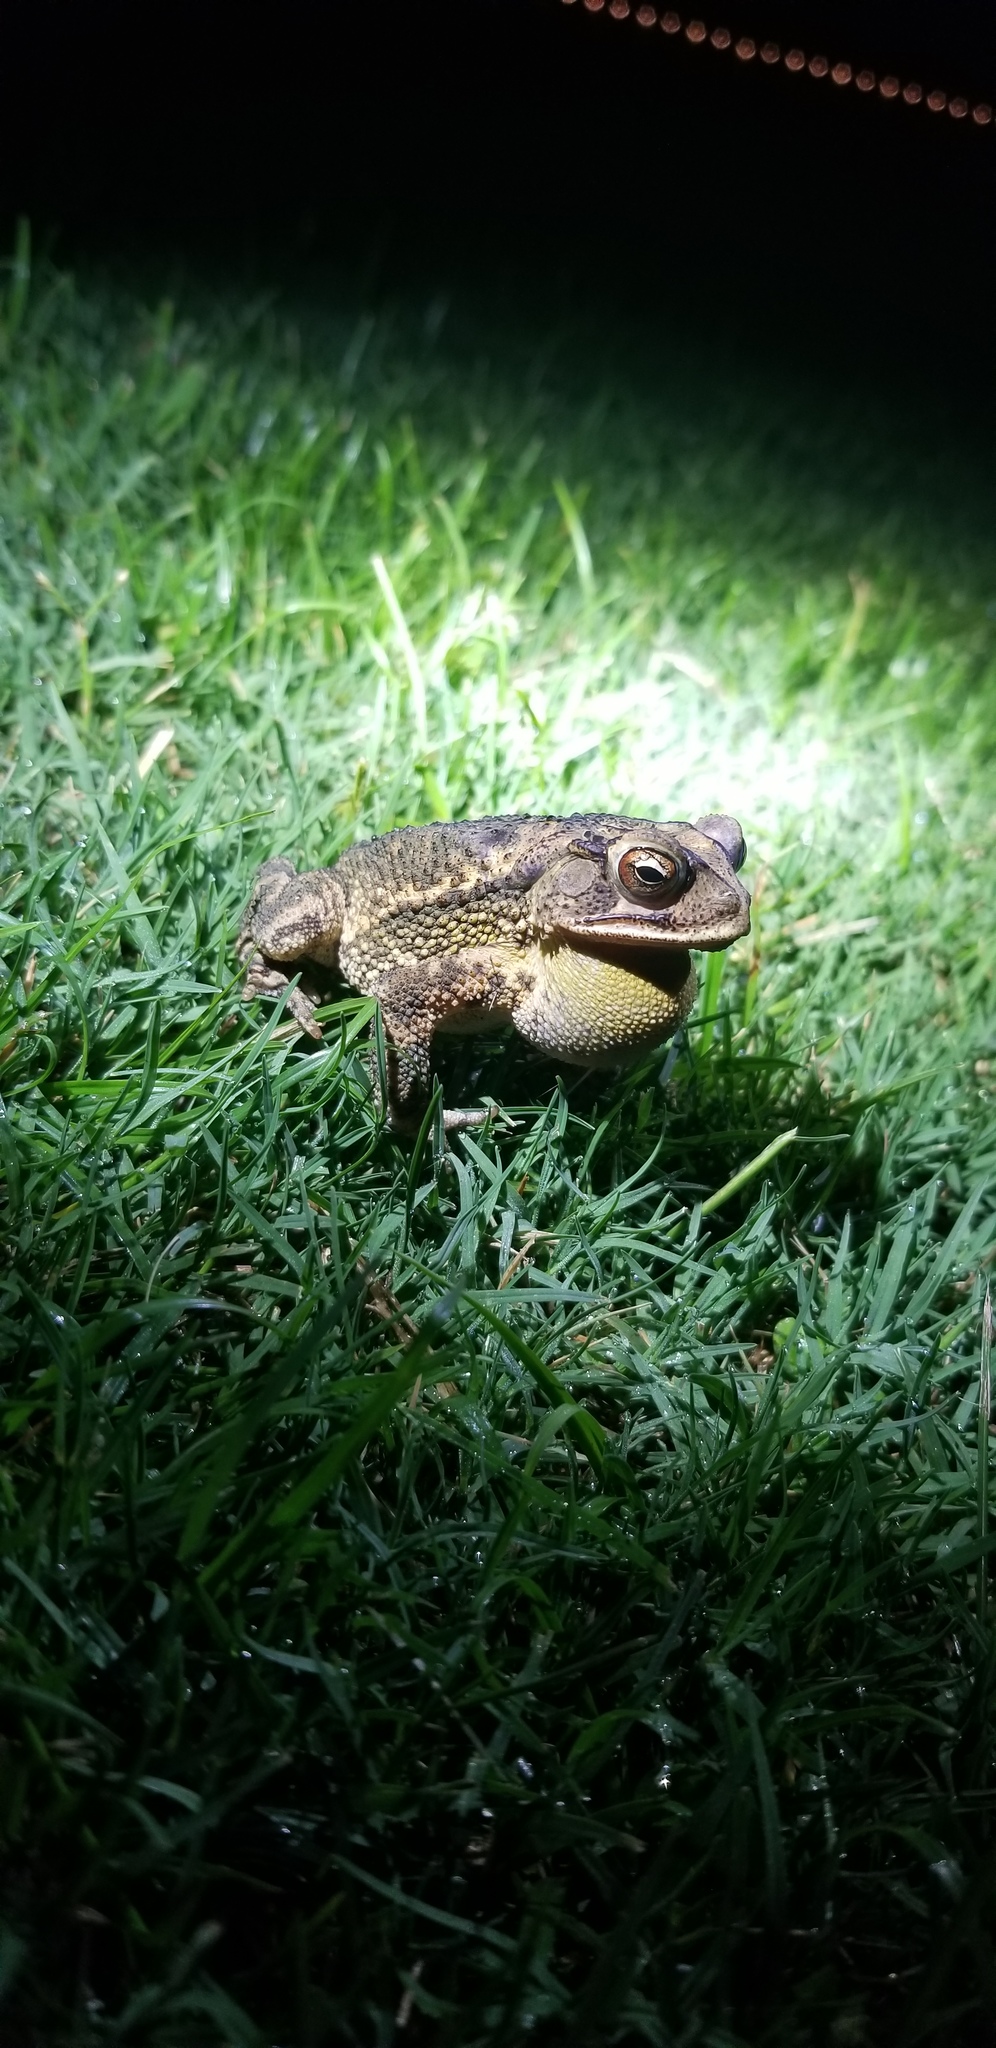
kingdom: Animalia
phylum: Chordata
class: Amphibia
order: Anura
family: Bufonidae
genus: Incilius
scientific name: Incilius nebulifer
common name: Gulf coast toad
